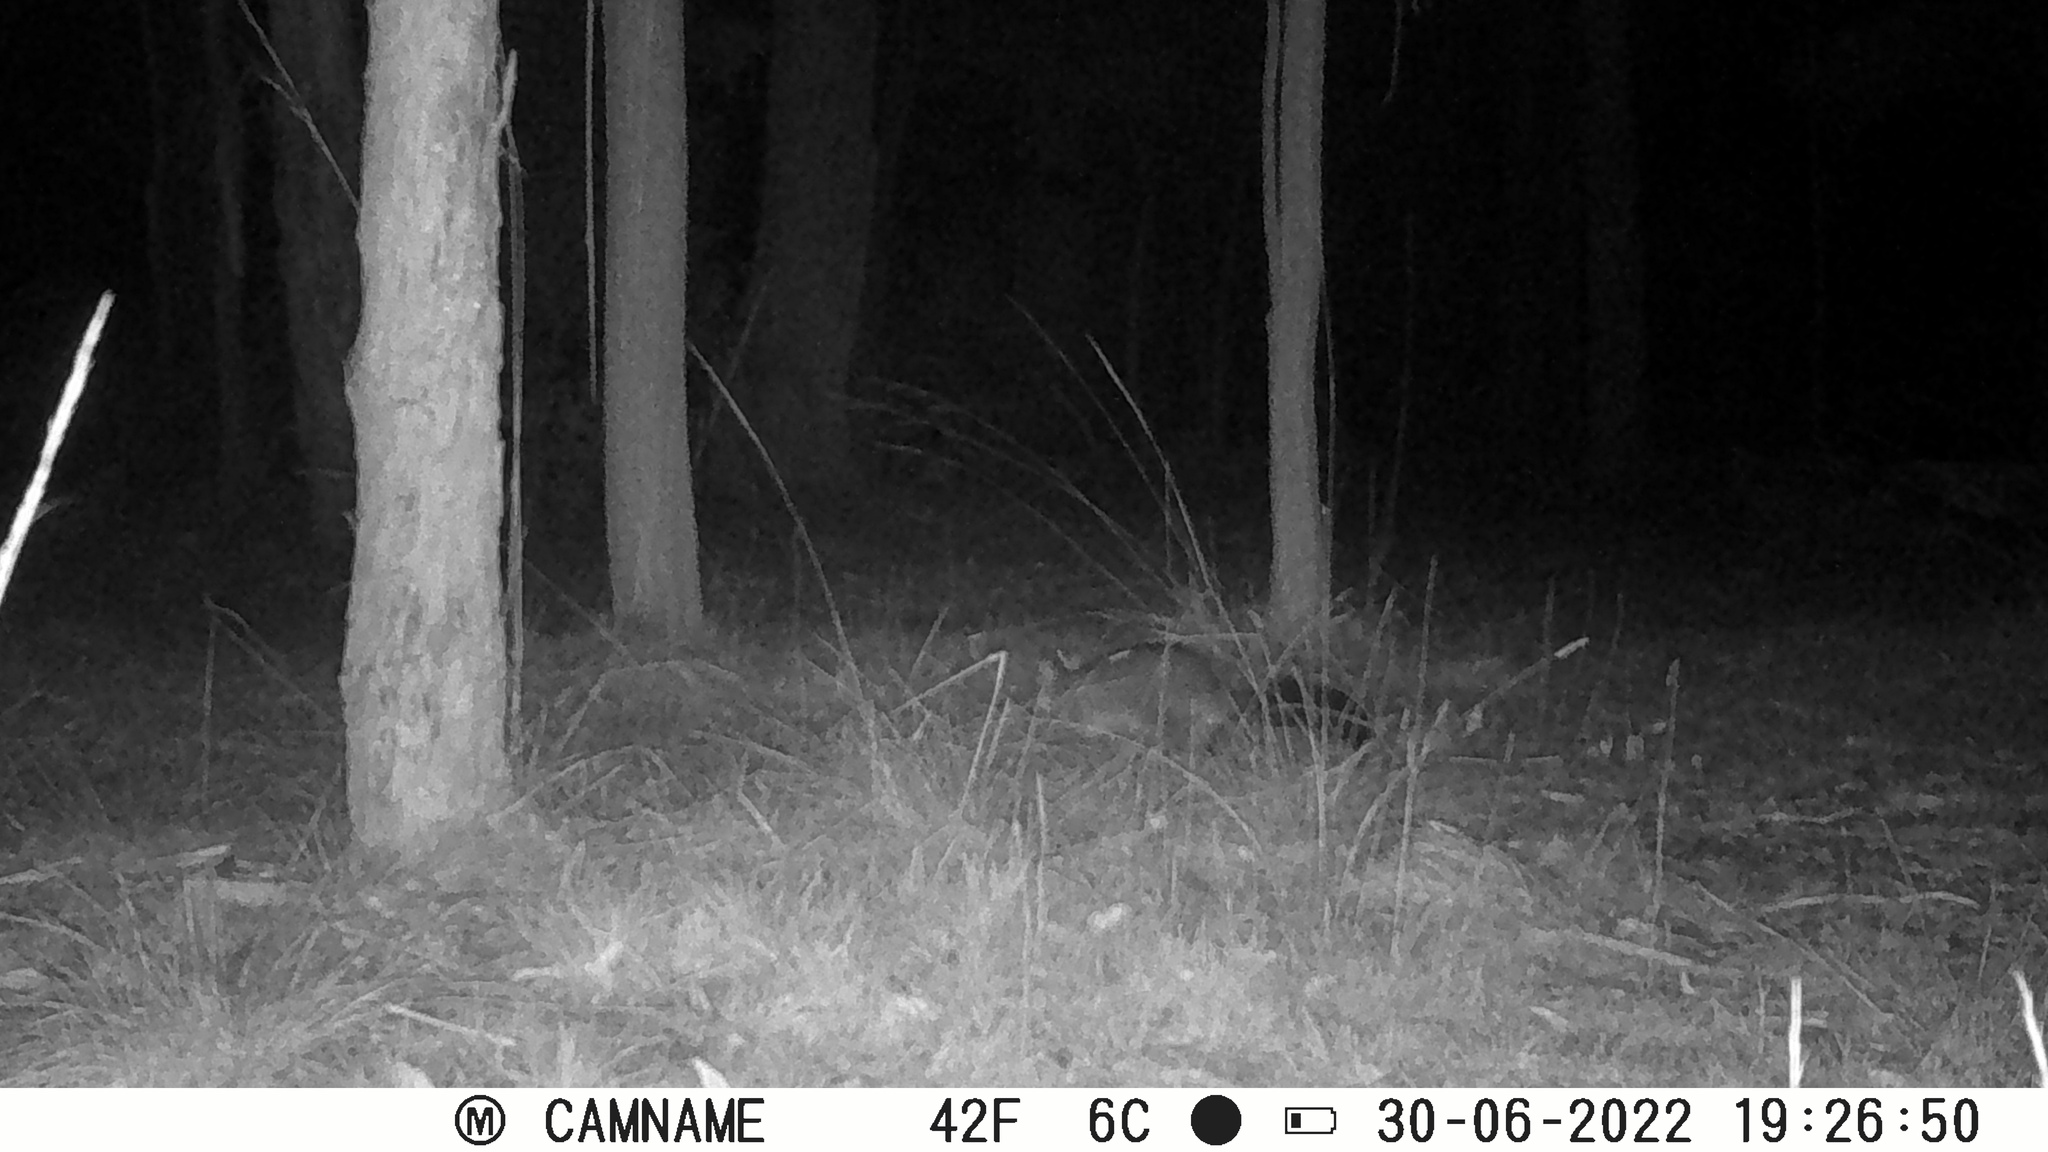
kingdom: Animalia
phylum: Chordata
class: Mammalia
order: Diprotodontia
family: Phalangeridae
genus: Trichosurus
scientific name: Trichosurus vulpecula
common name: Common brushtail
